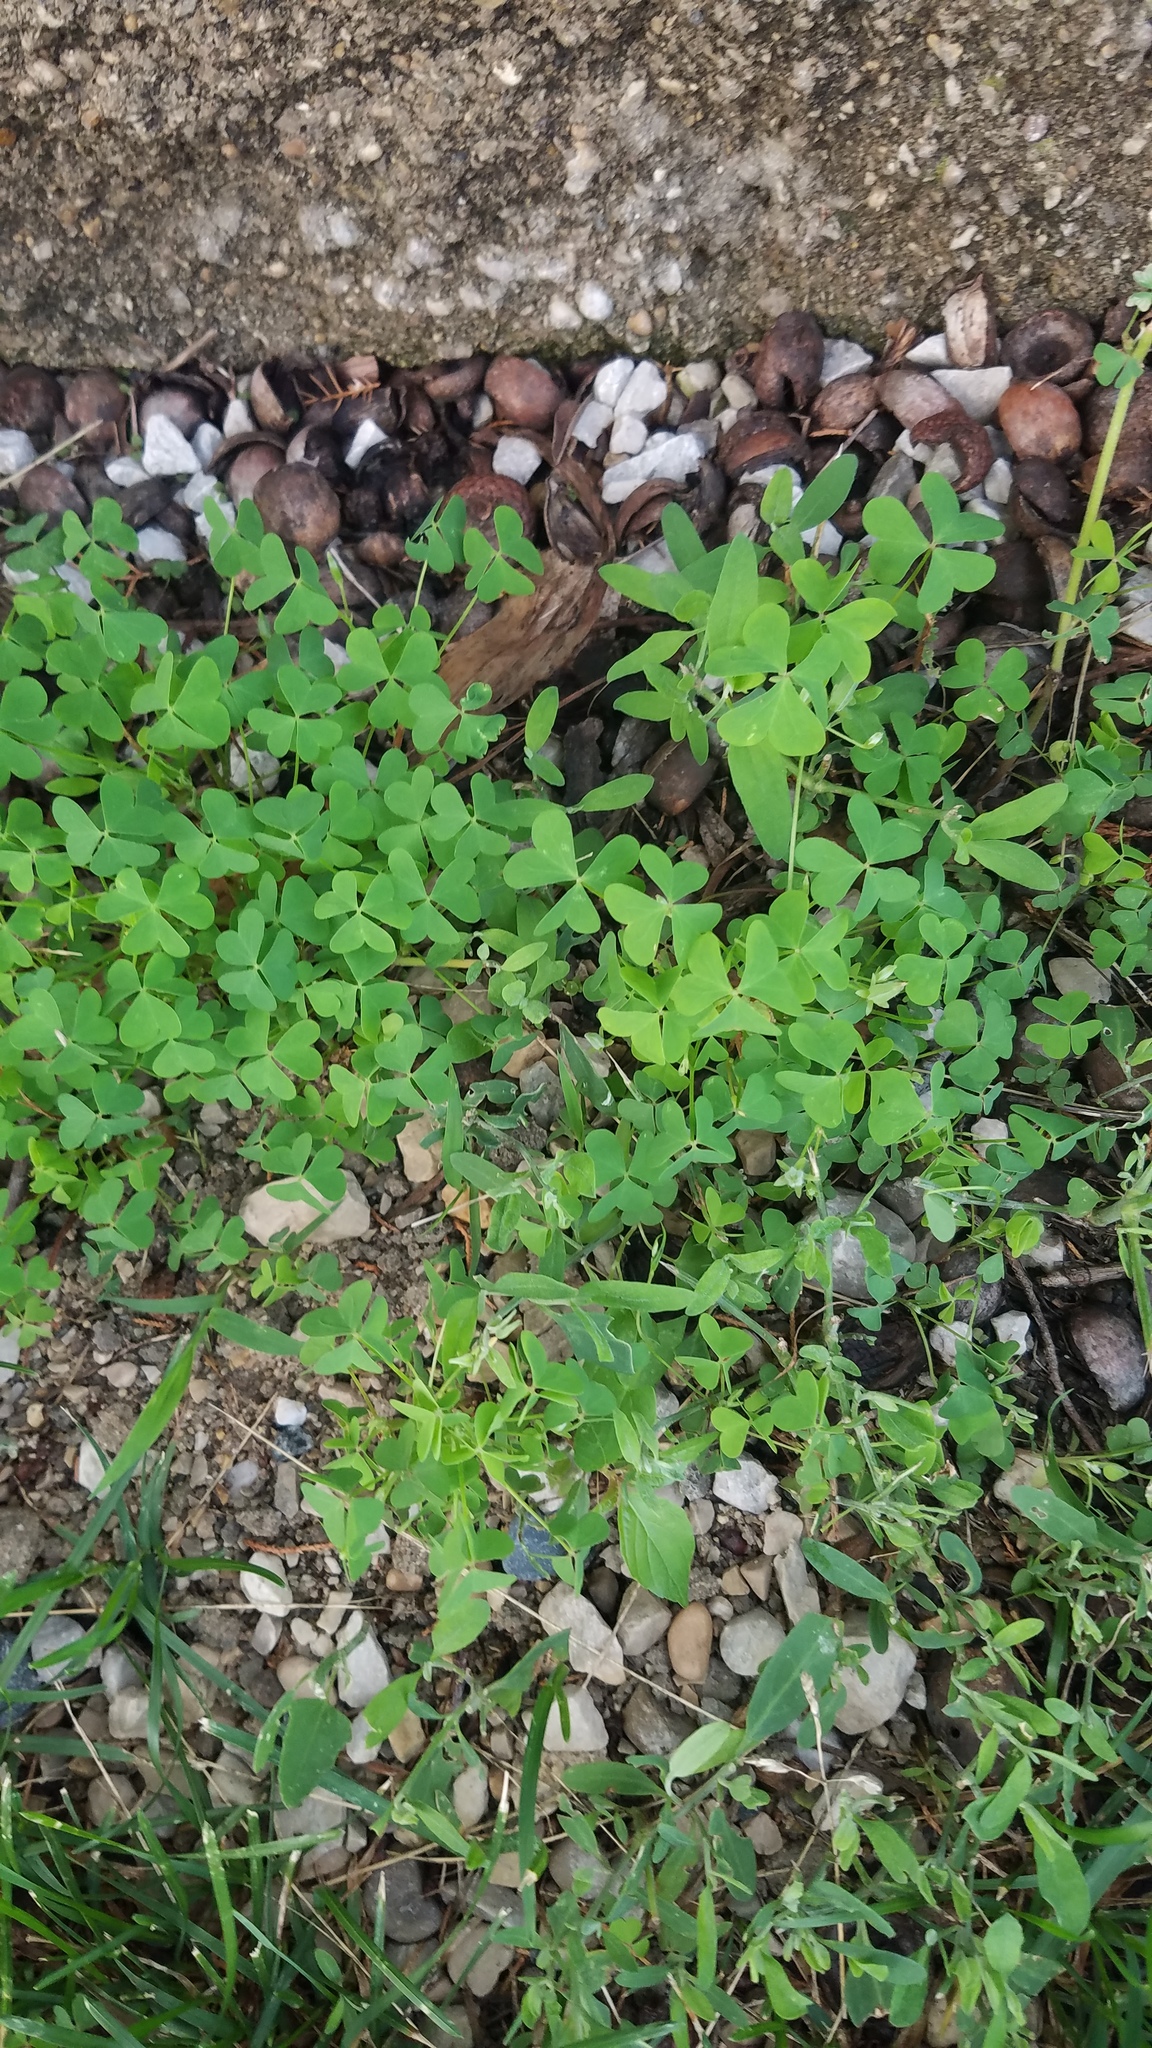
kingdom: Plantae
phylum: Tracheophyta
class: Magnoliopsida
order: Oxalidales
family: Oxalidaceae
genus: Oxalis
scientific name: Oxalis
